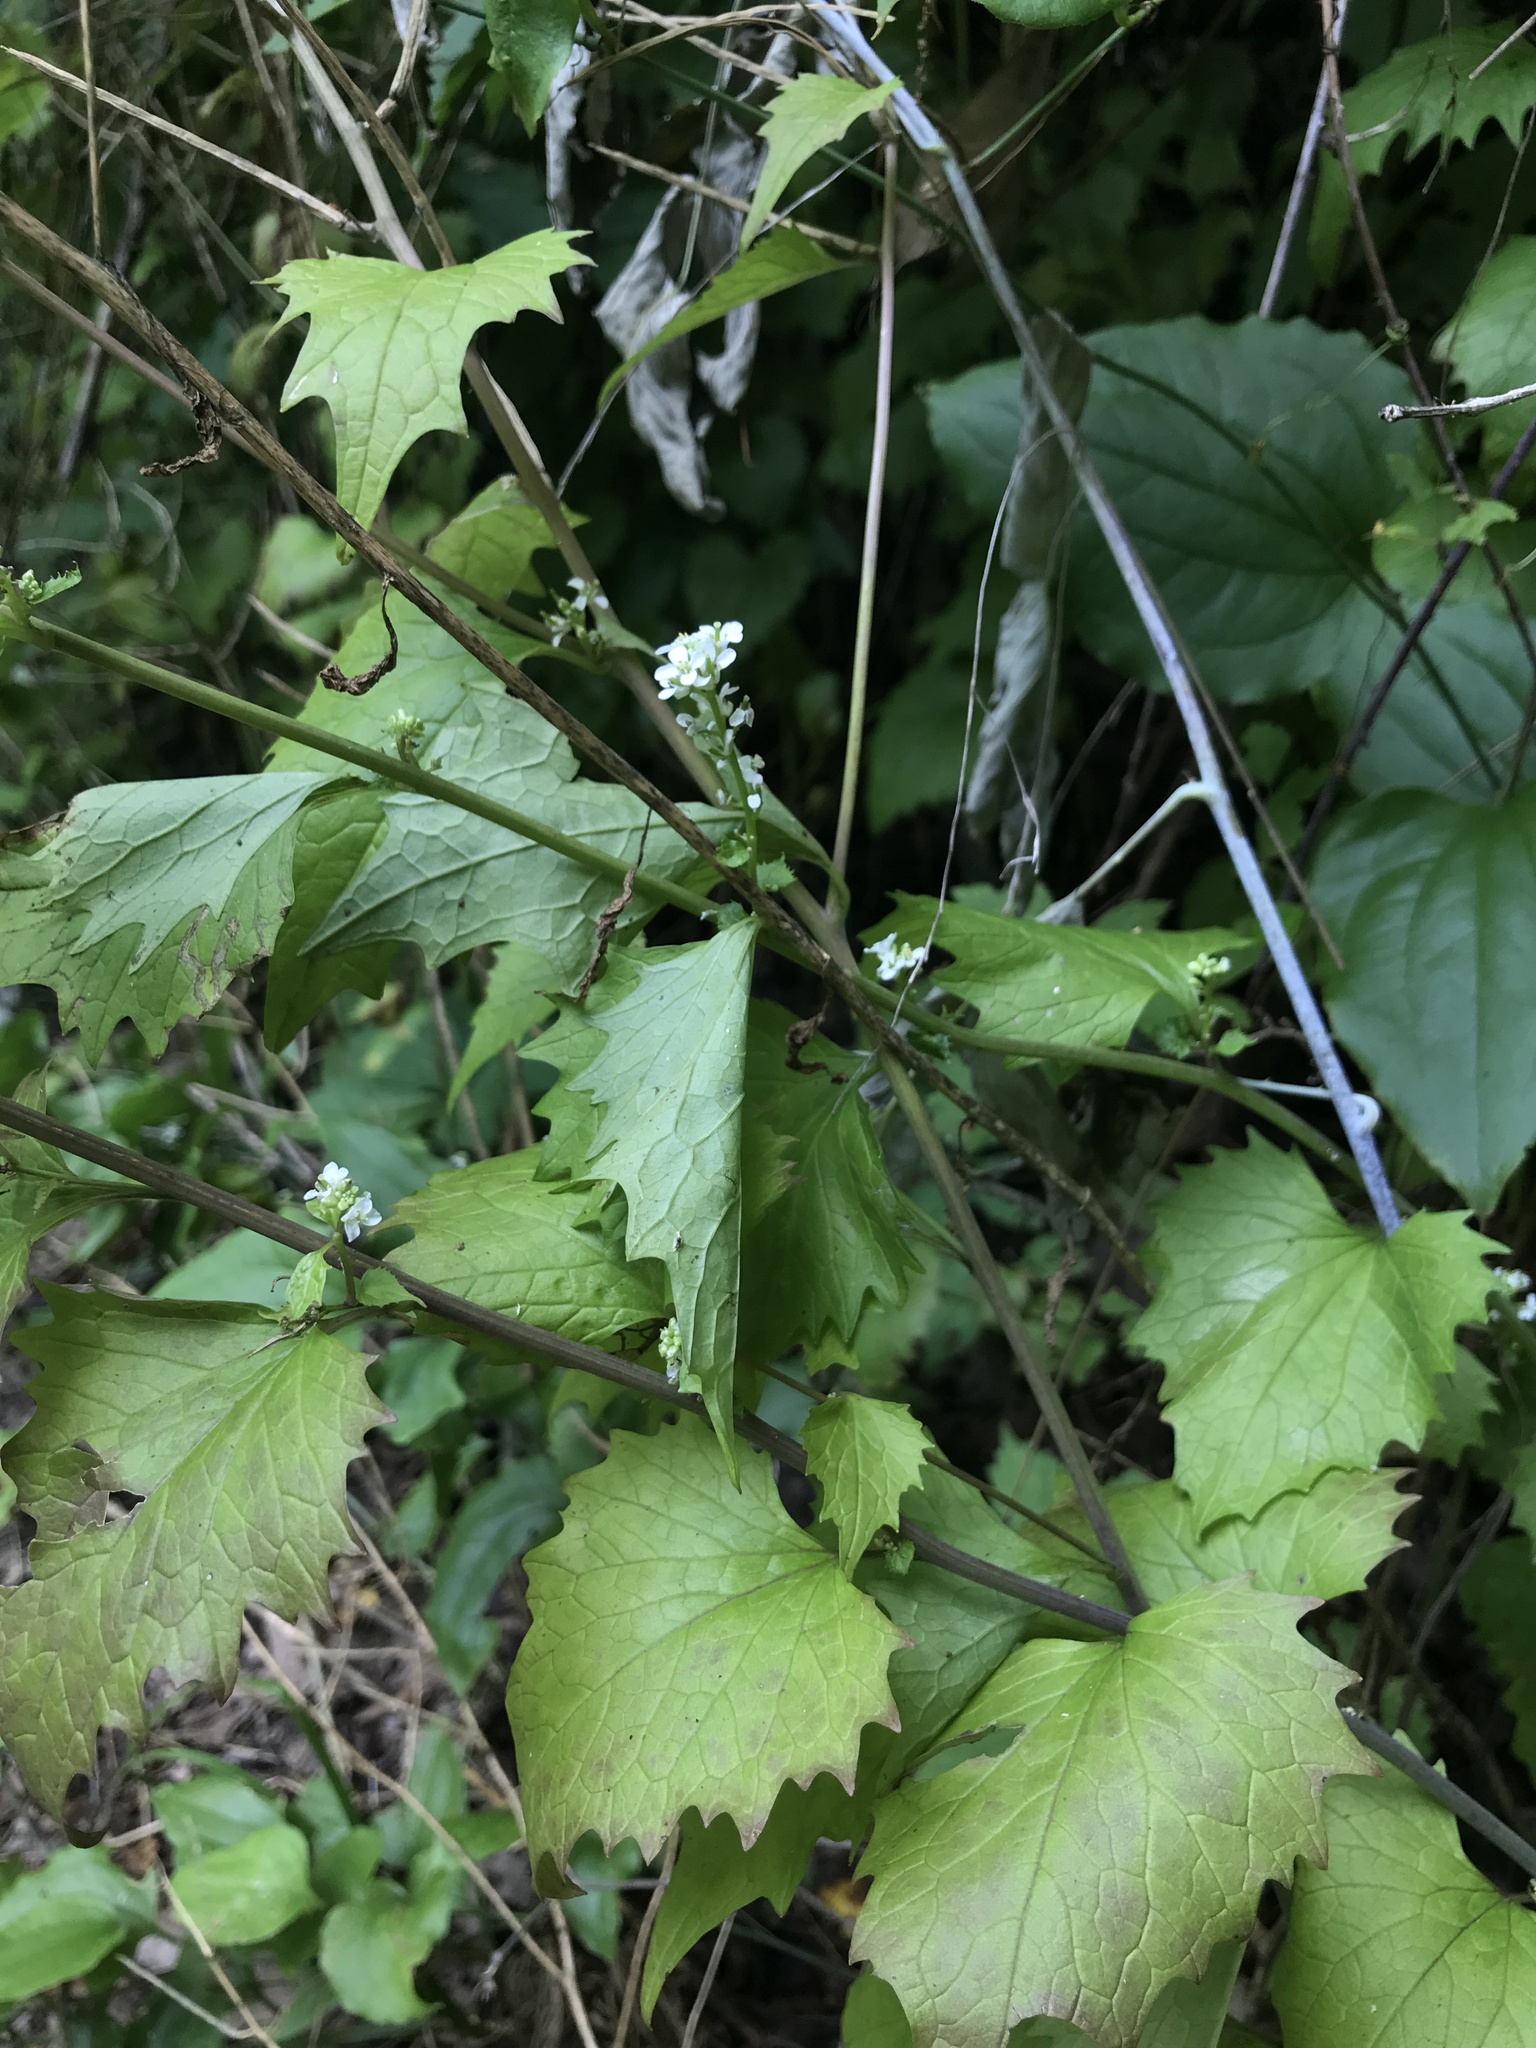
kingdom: Plantae
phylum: Tracheophyta
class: Magnoliopsida
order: Brassicales
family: Brassicaceae
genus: Alliaria
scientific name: Alliaria petiolata
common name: Garlic mustard
